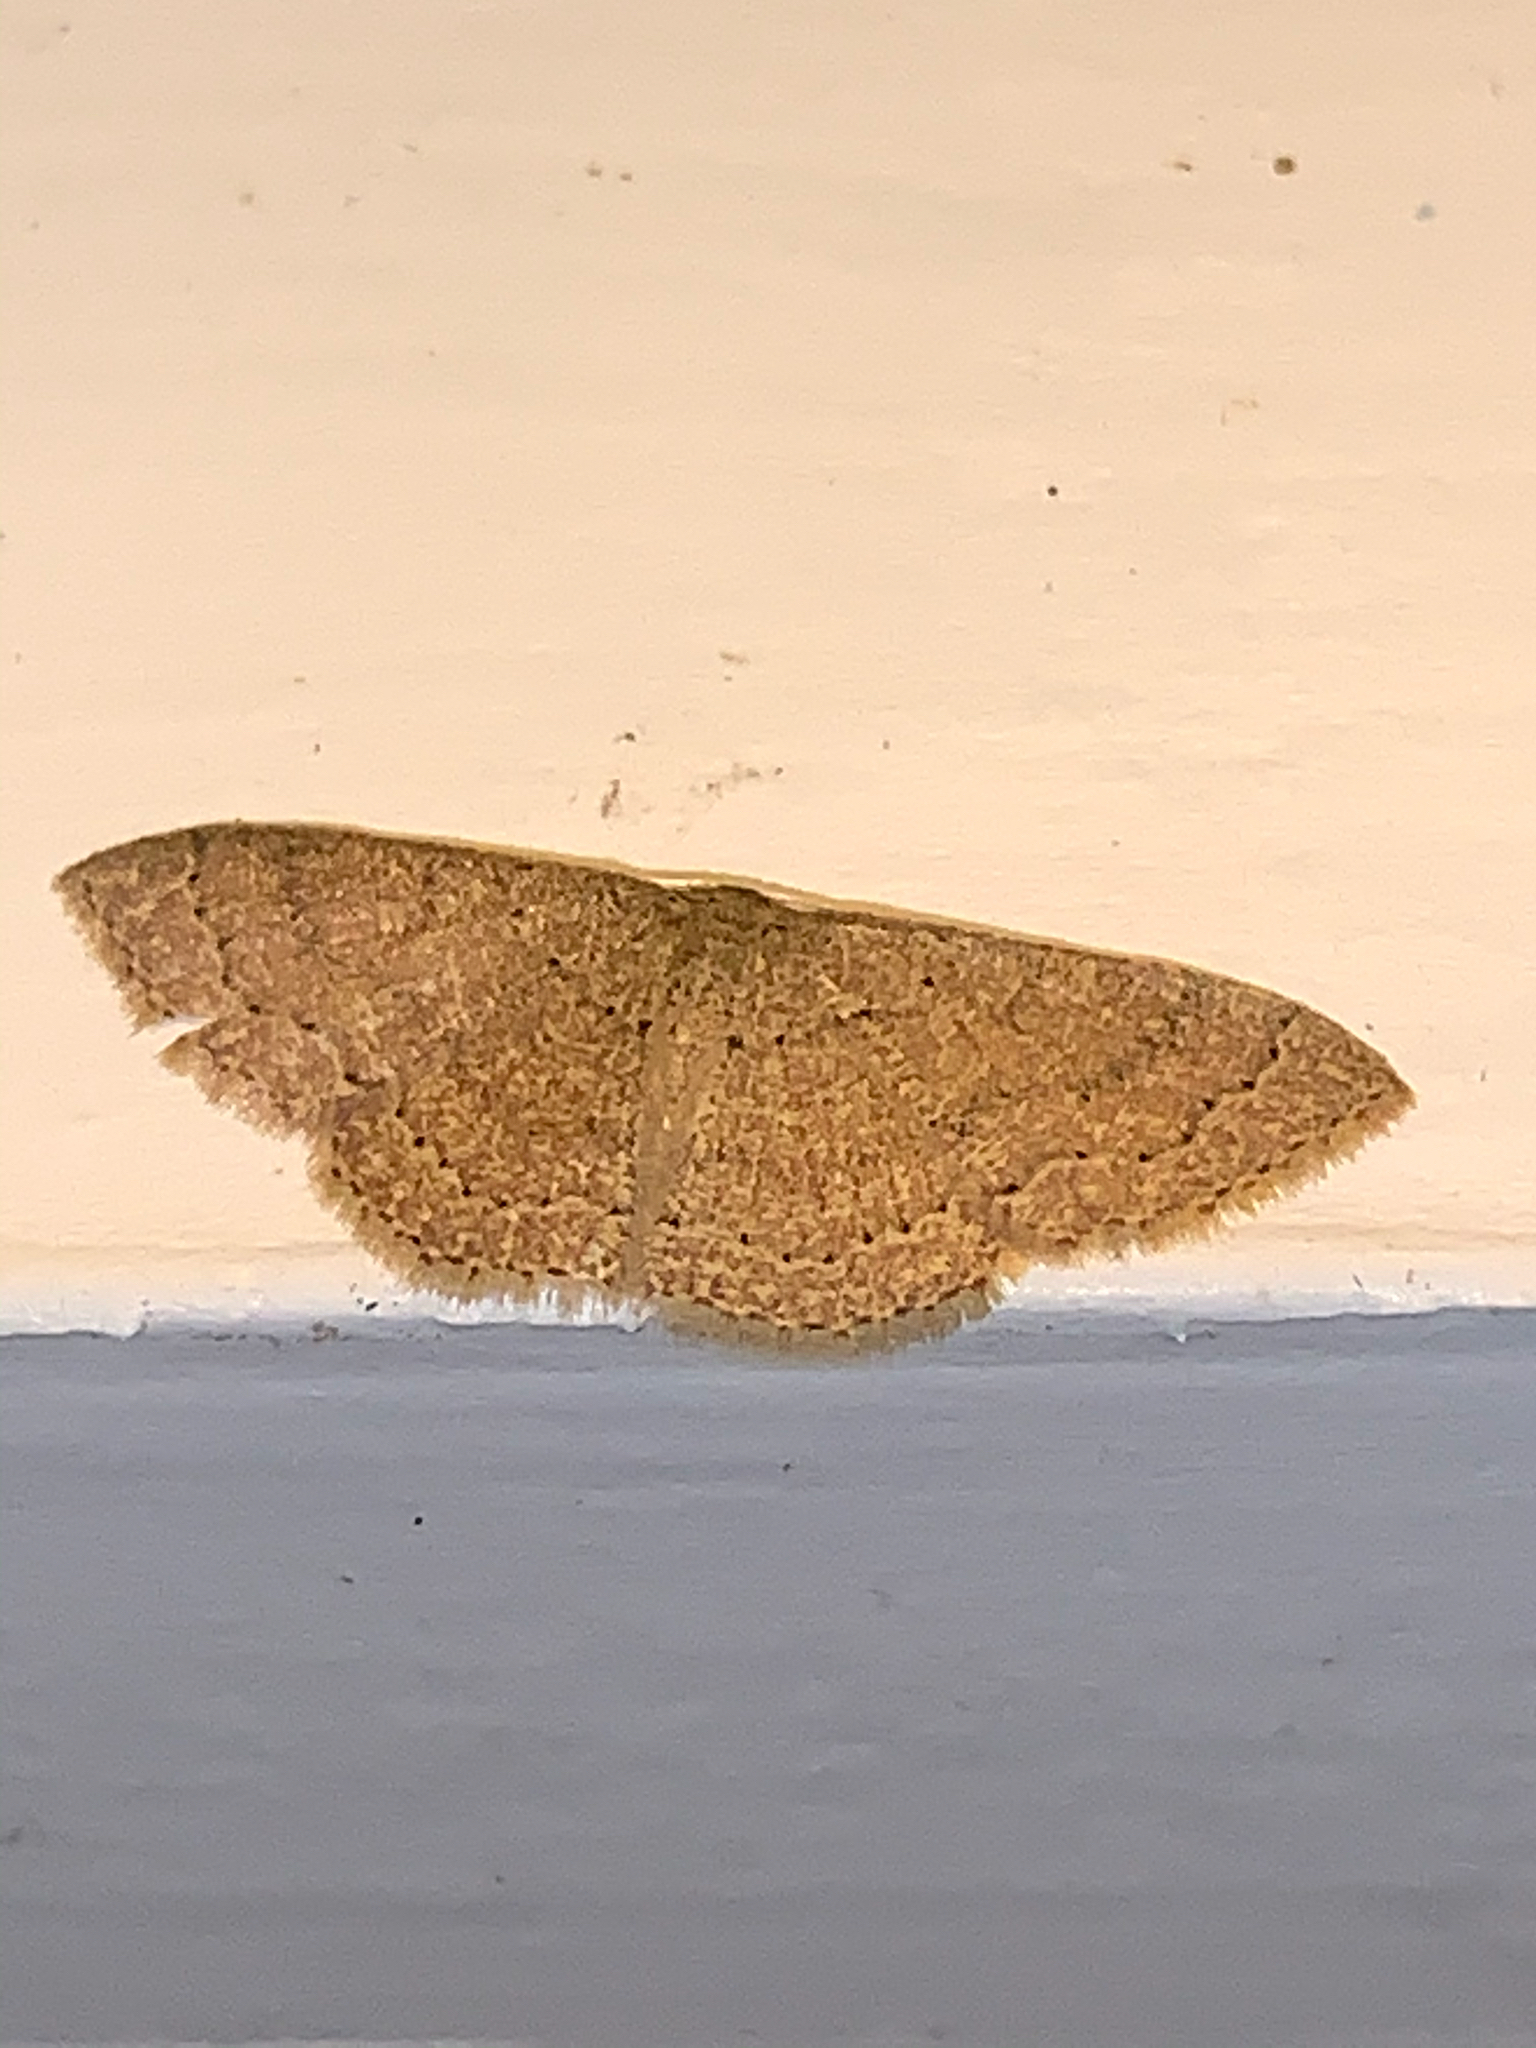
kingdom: Animalia
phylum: Arthropoda
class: Insecta
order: Lepidoptera
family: Geometridae
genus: Pleuroprucha
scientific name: Pleuroprucha insulsaria
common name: Common tan wave
